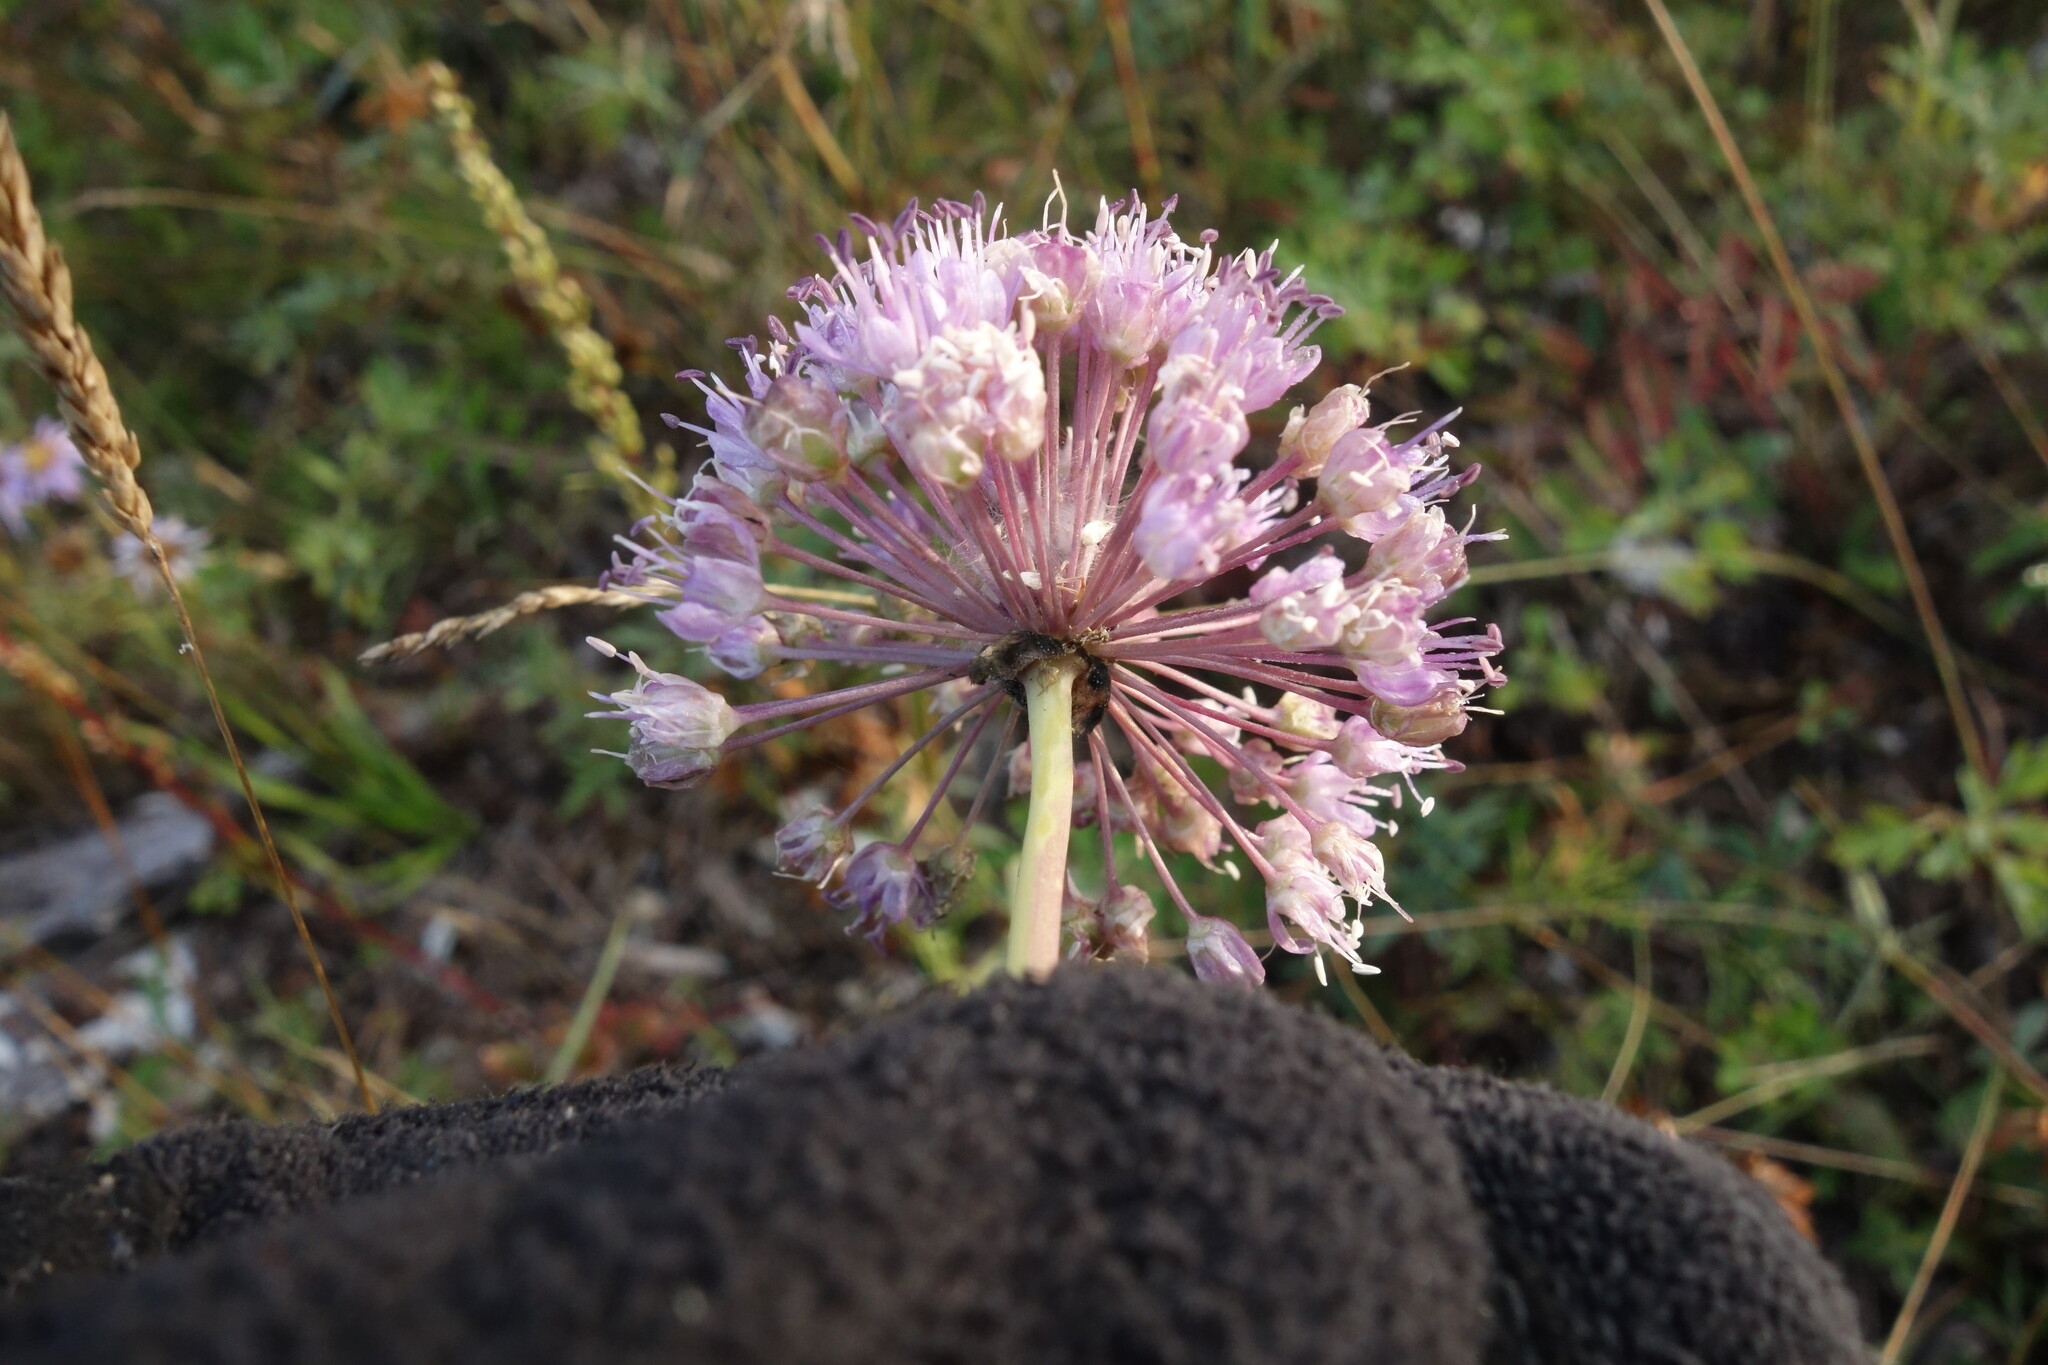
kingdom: Plantae
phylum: Tracheophyta
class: Liliopsida
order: Asparagales
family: Amaryllidaceae
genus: Allium
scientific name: Allium senescens
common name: German garlic
